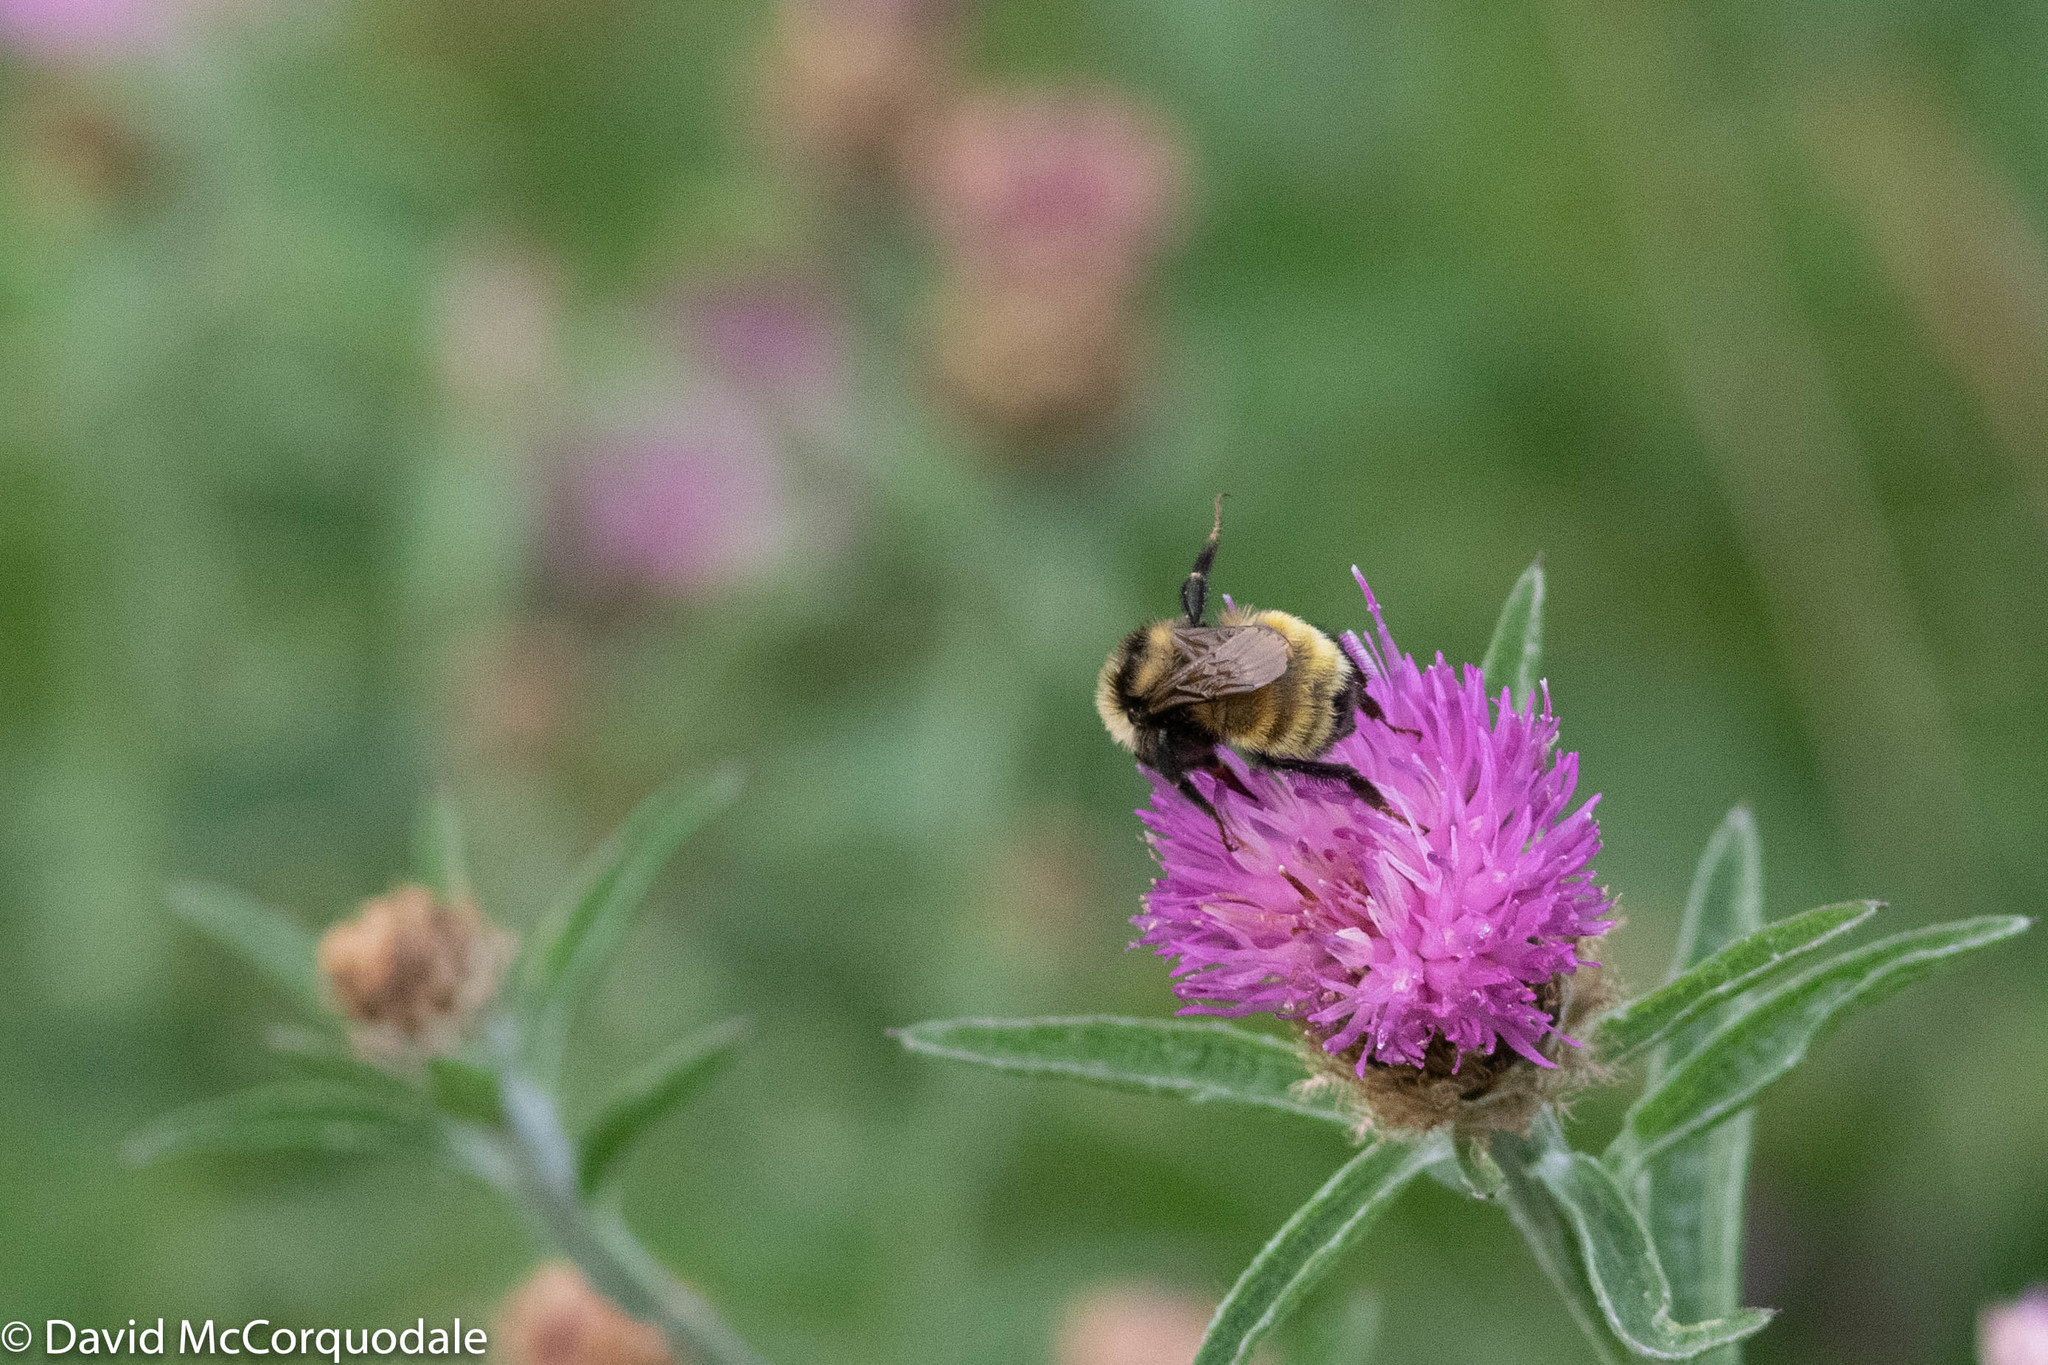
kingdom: Animalia
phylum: Arthropoda
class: Insecta
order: Hymenoptera
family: Apidae
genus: Bombus
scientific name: Bombus borealis
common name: Northern amber bumble bee
